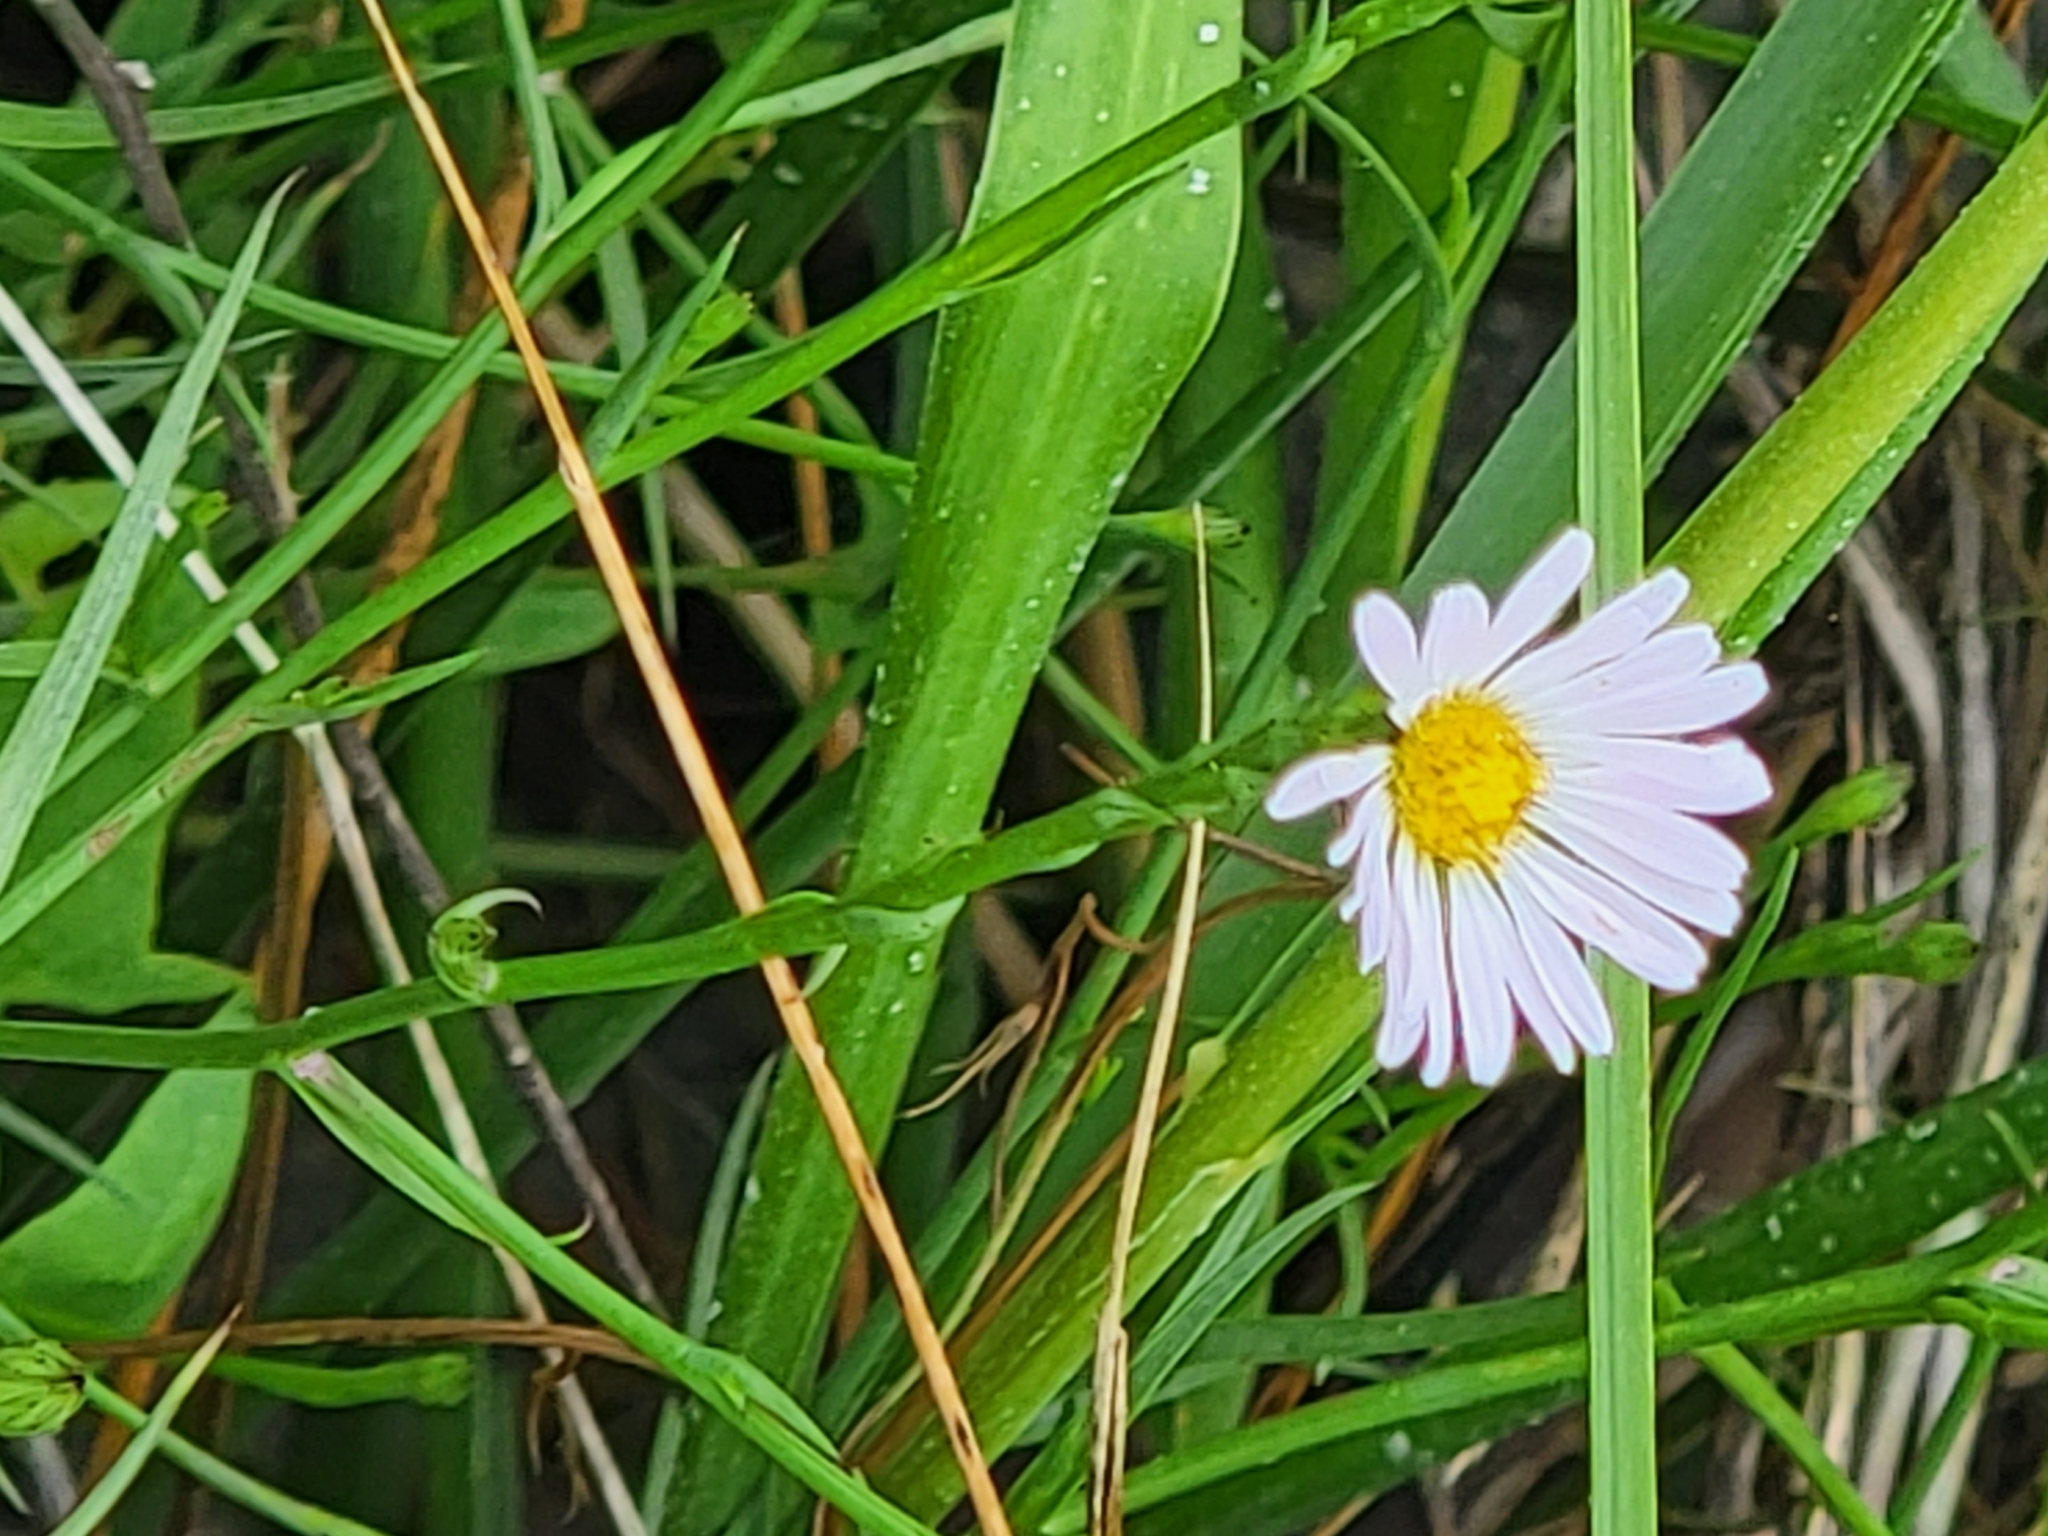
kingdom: Plantae
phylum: Tracheophyta
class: Magnoliopsida
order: Asterales
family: Asteraceae
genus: Symphyotrichum
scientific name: Symphyotrichum tenuifolium
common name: Perennial salt-marsh aster
